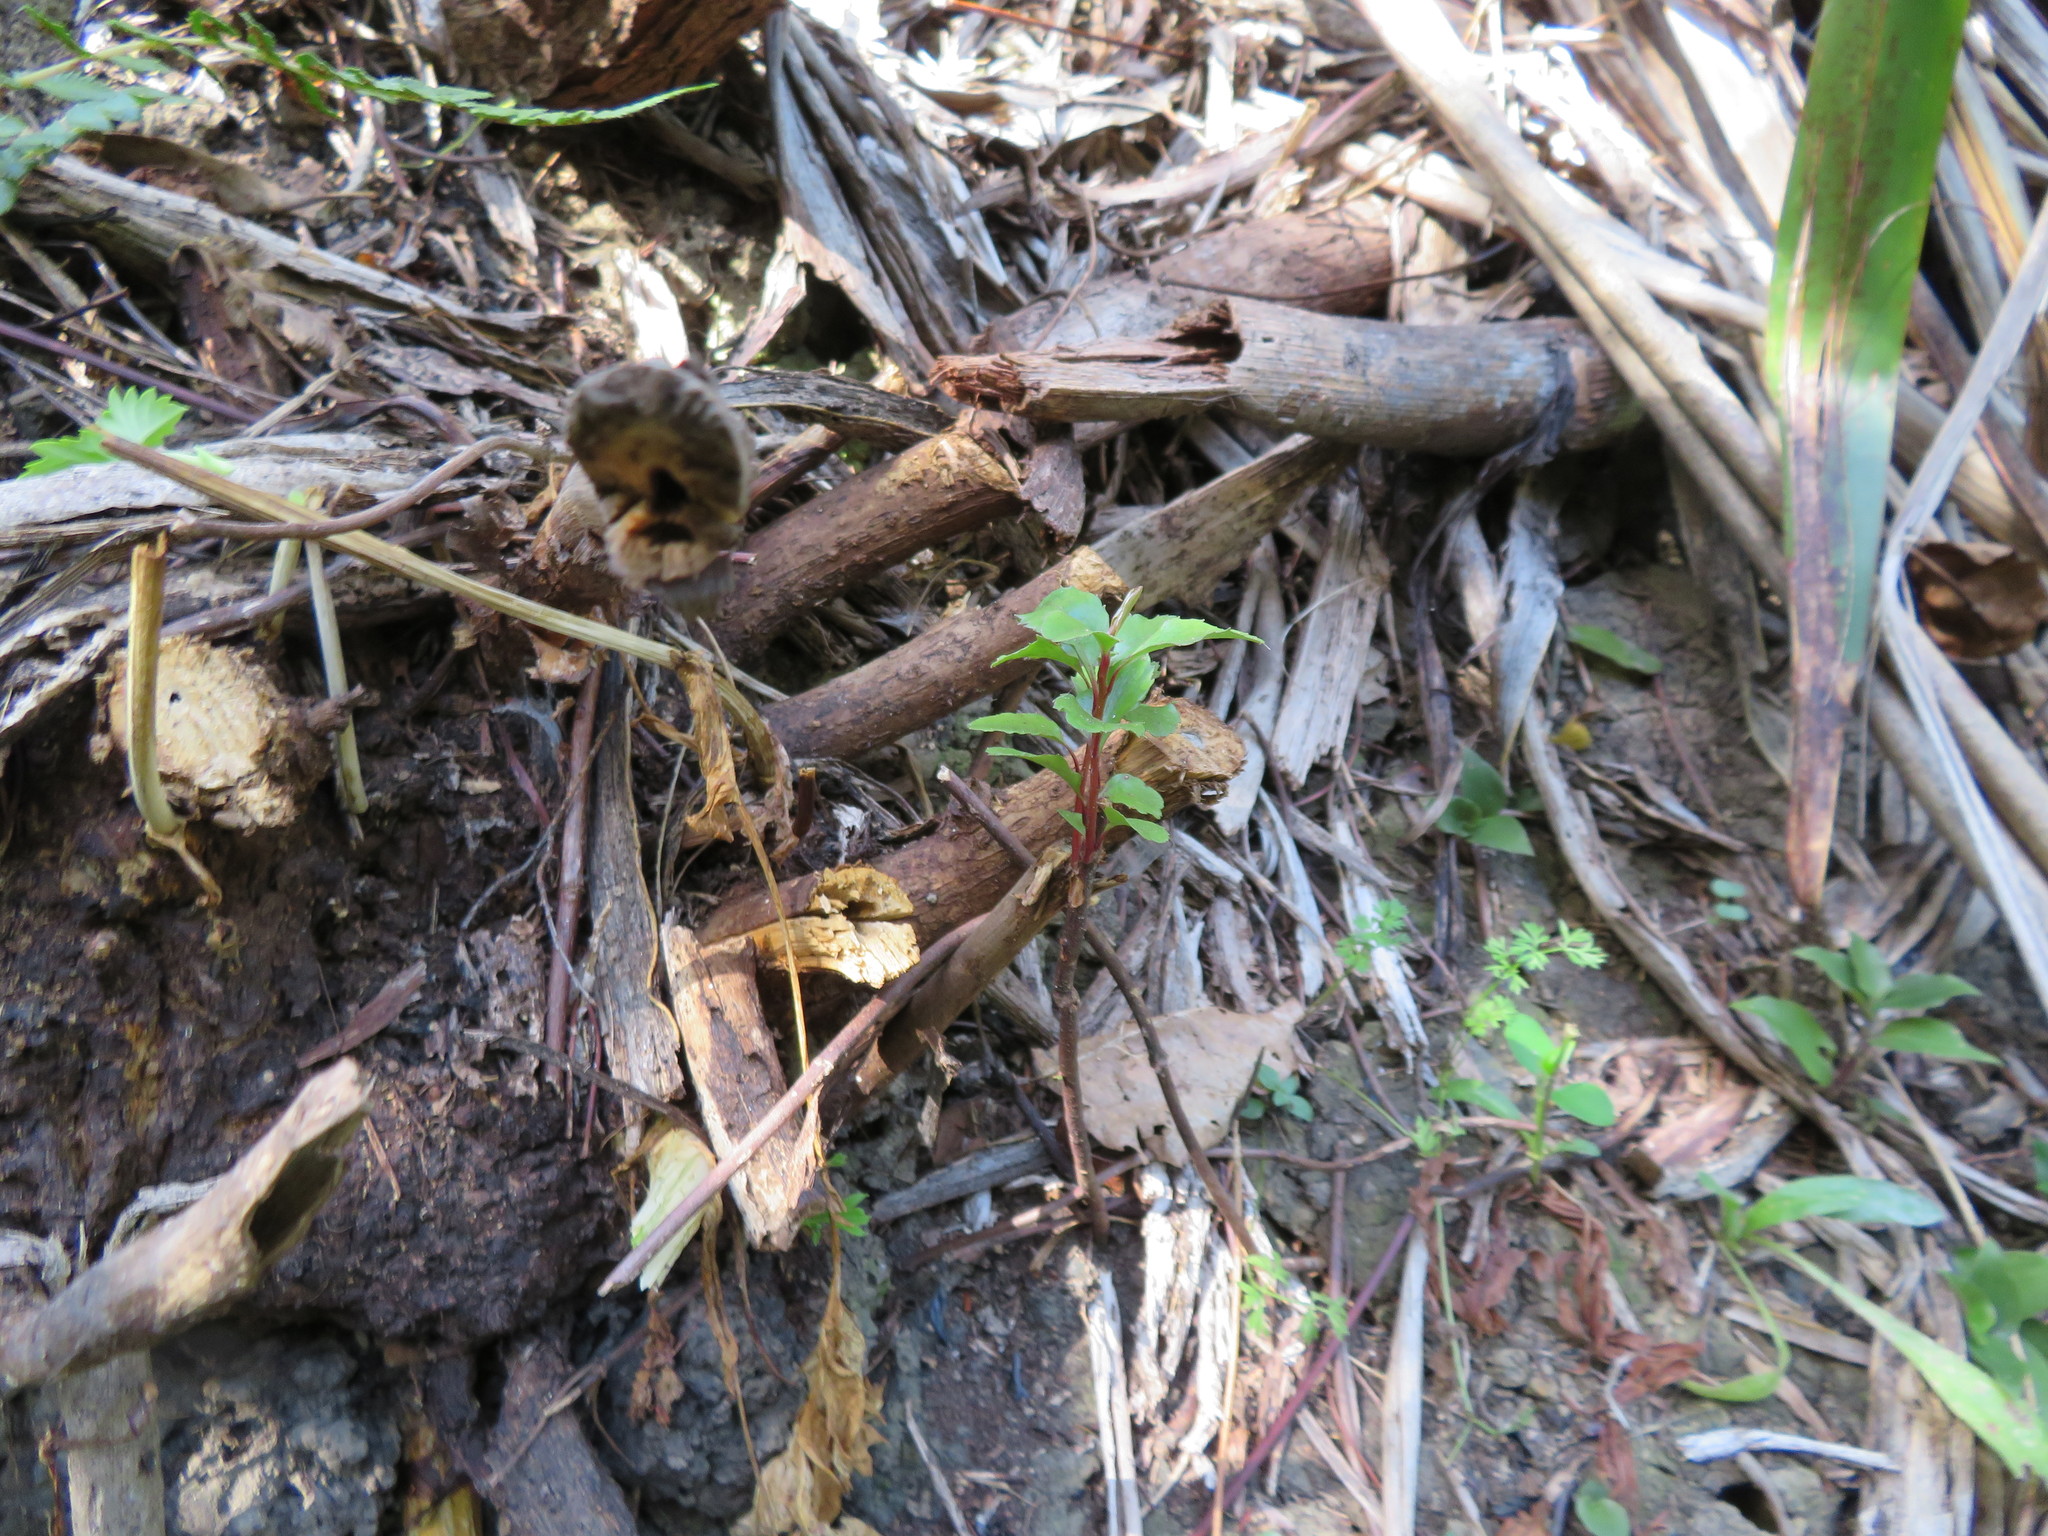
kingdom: Plantae
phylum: Tracheophyta
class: Magnoliopsida
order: Ericales
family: Primulaceae
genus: Myrsine
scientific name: Myrsine australis
